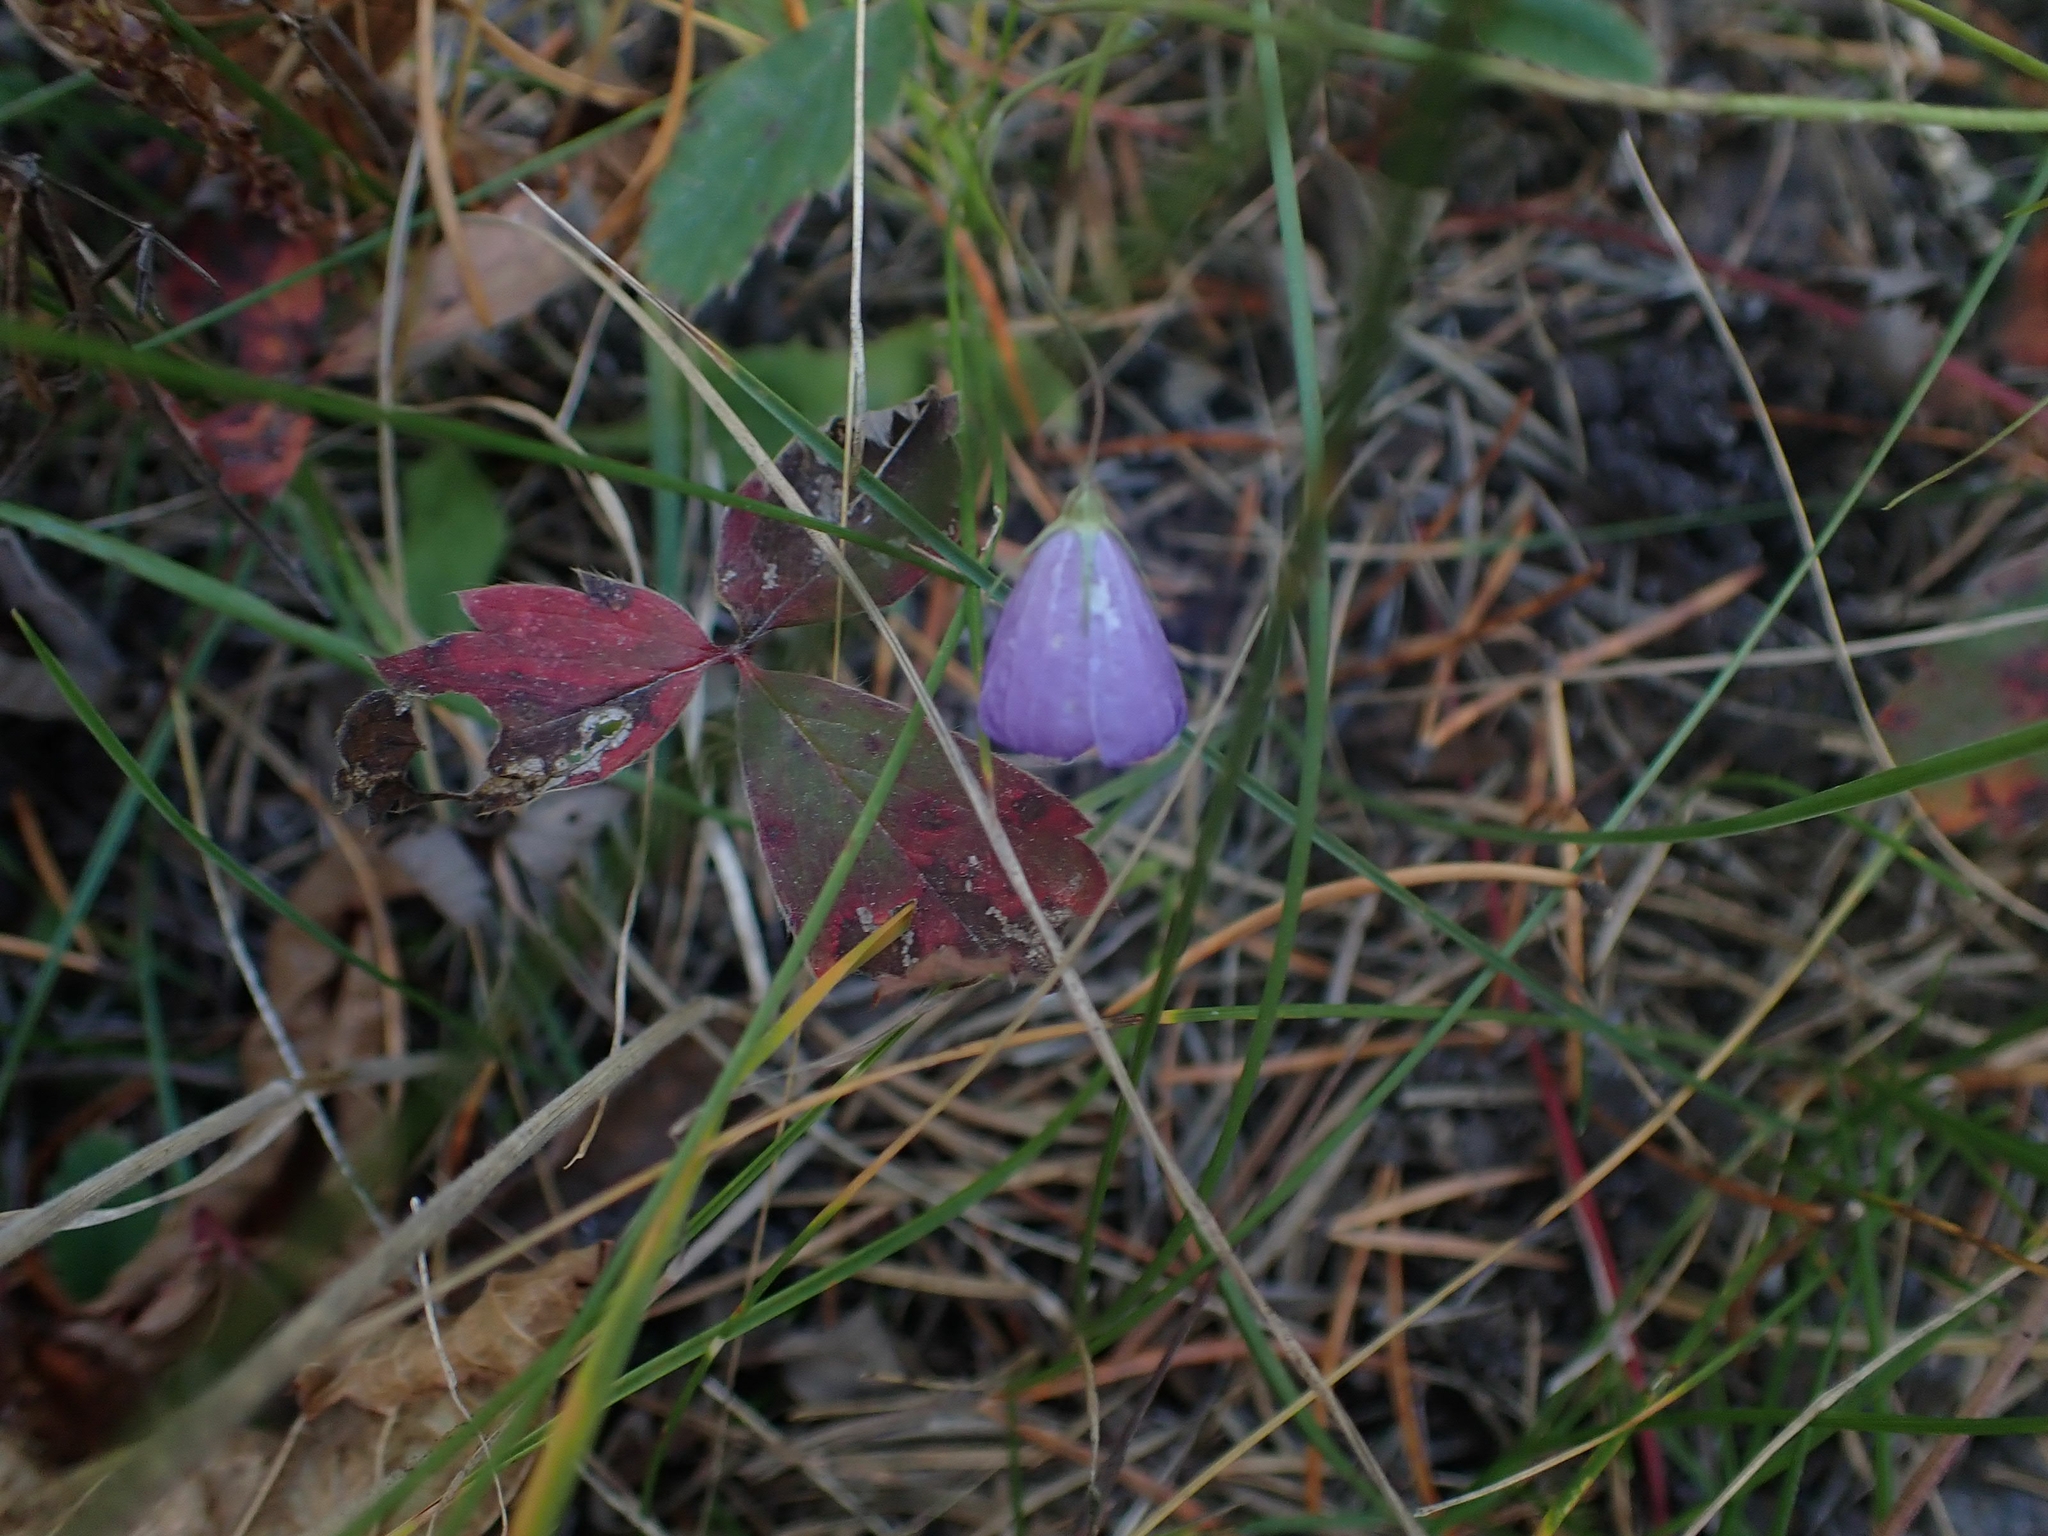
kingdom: Plantae
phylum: Tracheophyta
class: Magnoliopsida
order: Asterales
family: Campanulaceae
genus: Campanula
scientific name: Campanula petiolata
